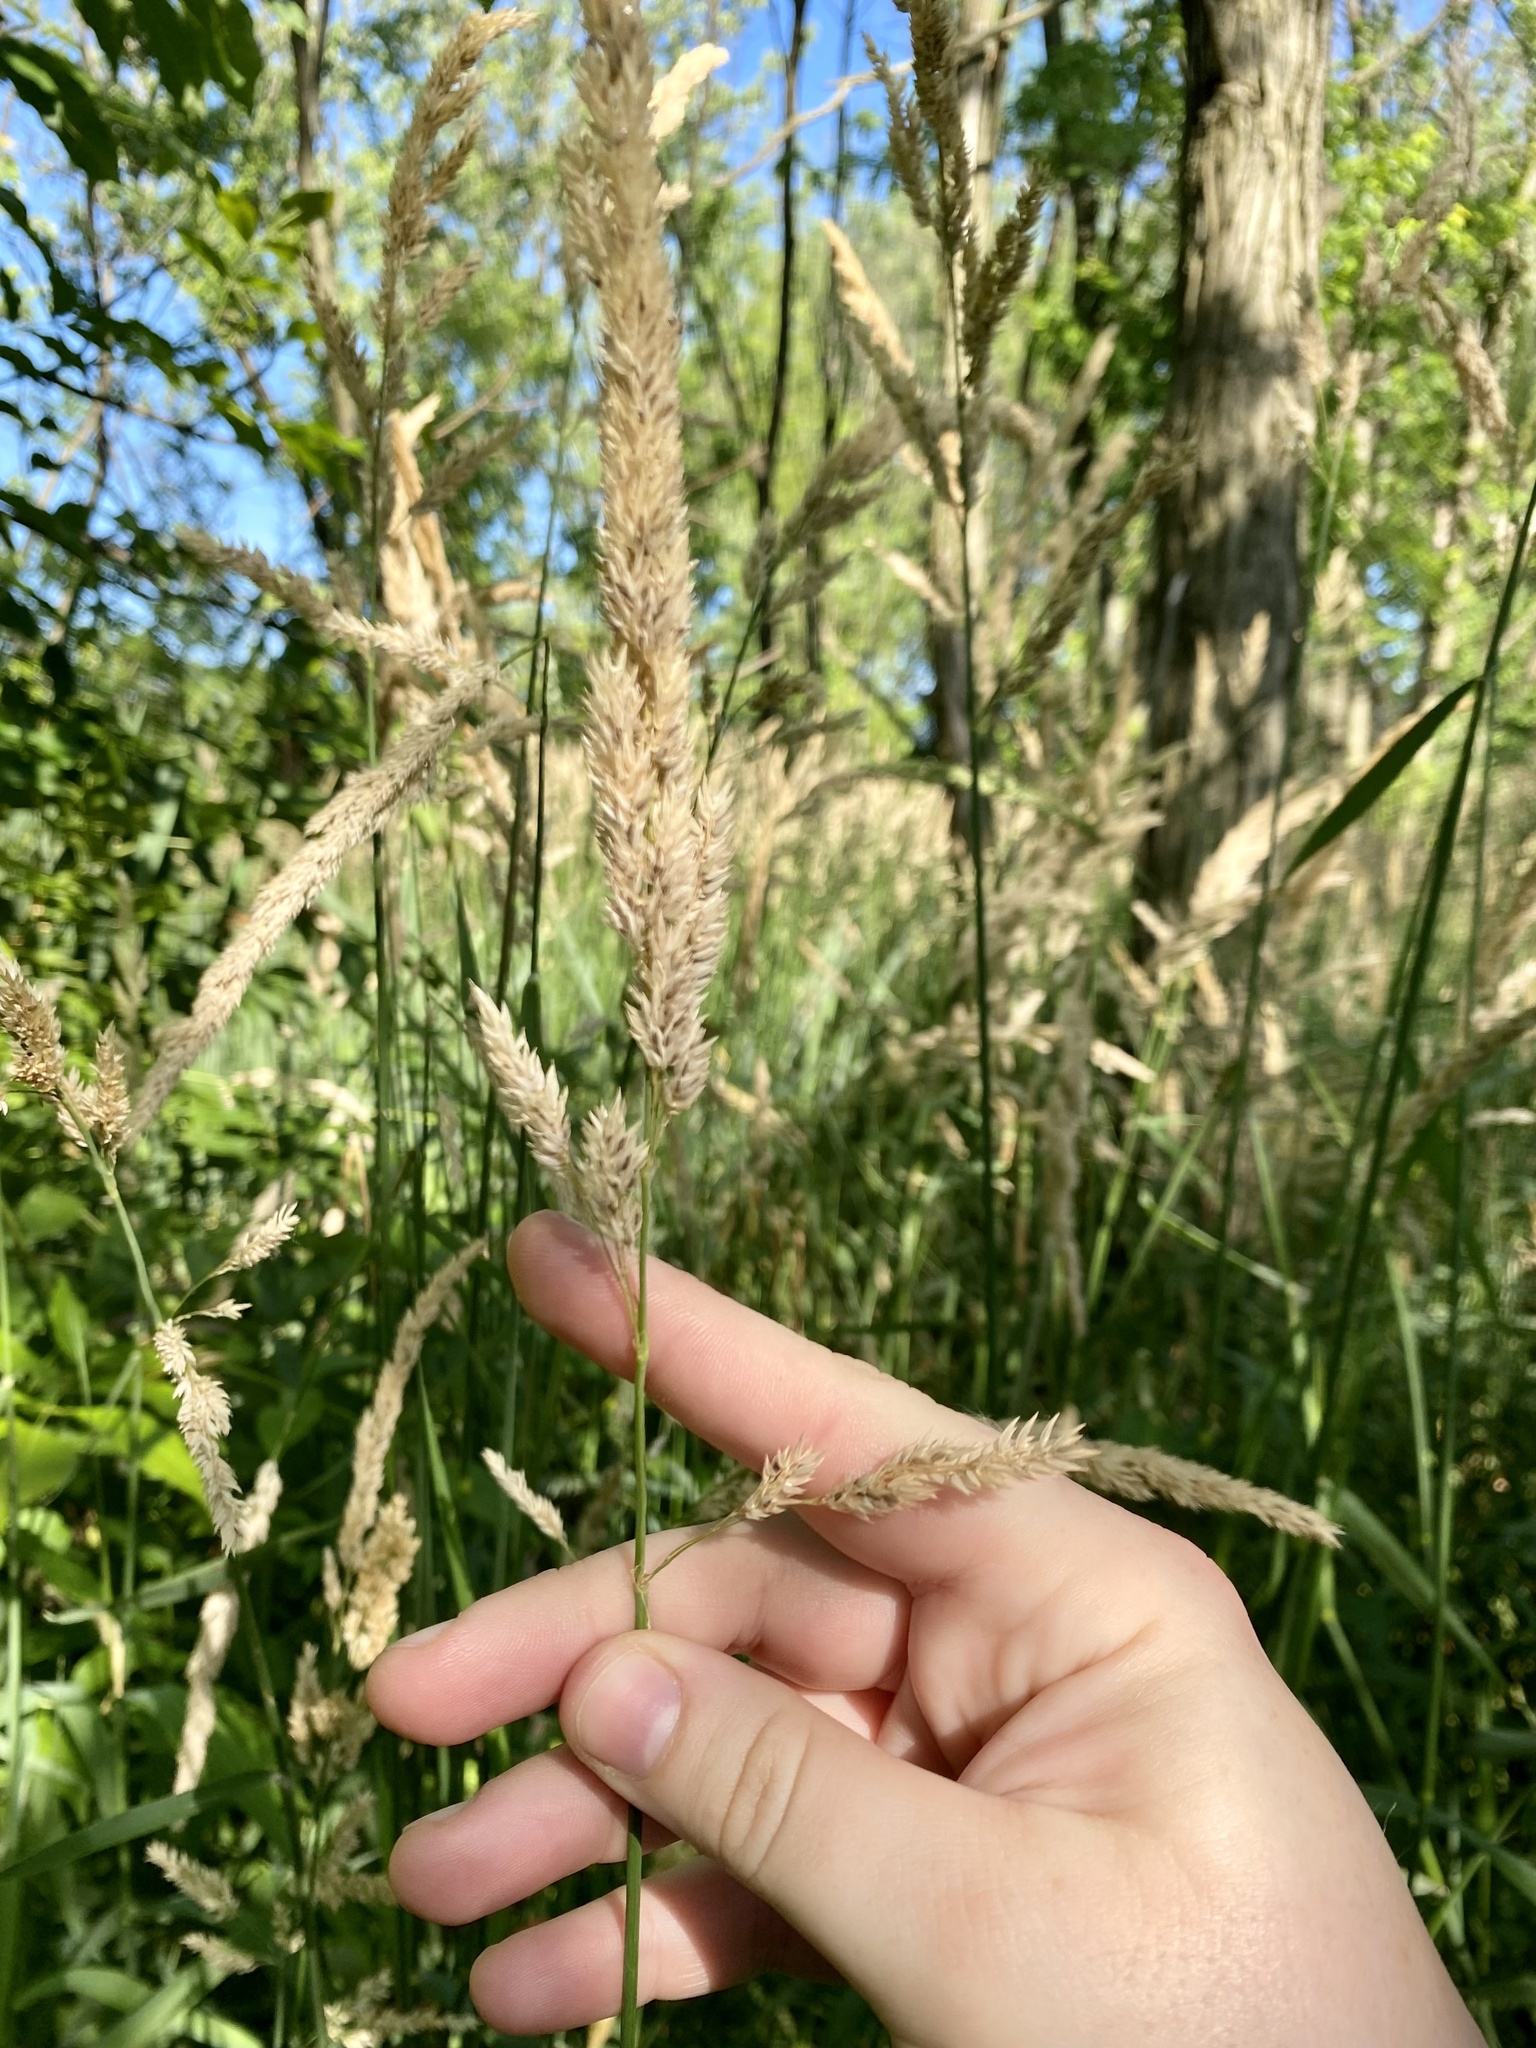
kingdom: Plantae
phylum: Tracheophyta
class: Liliopsida
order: Poales
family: Poaceae
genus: Phalaris
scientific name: Phalaris arundinacea
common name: Reed canary-grass
